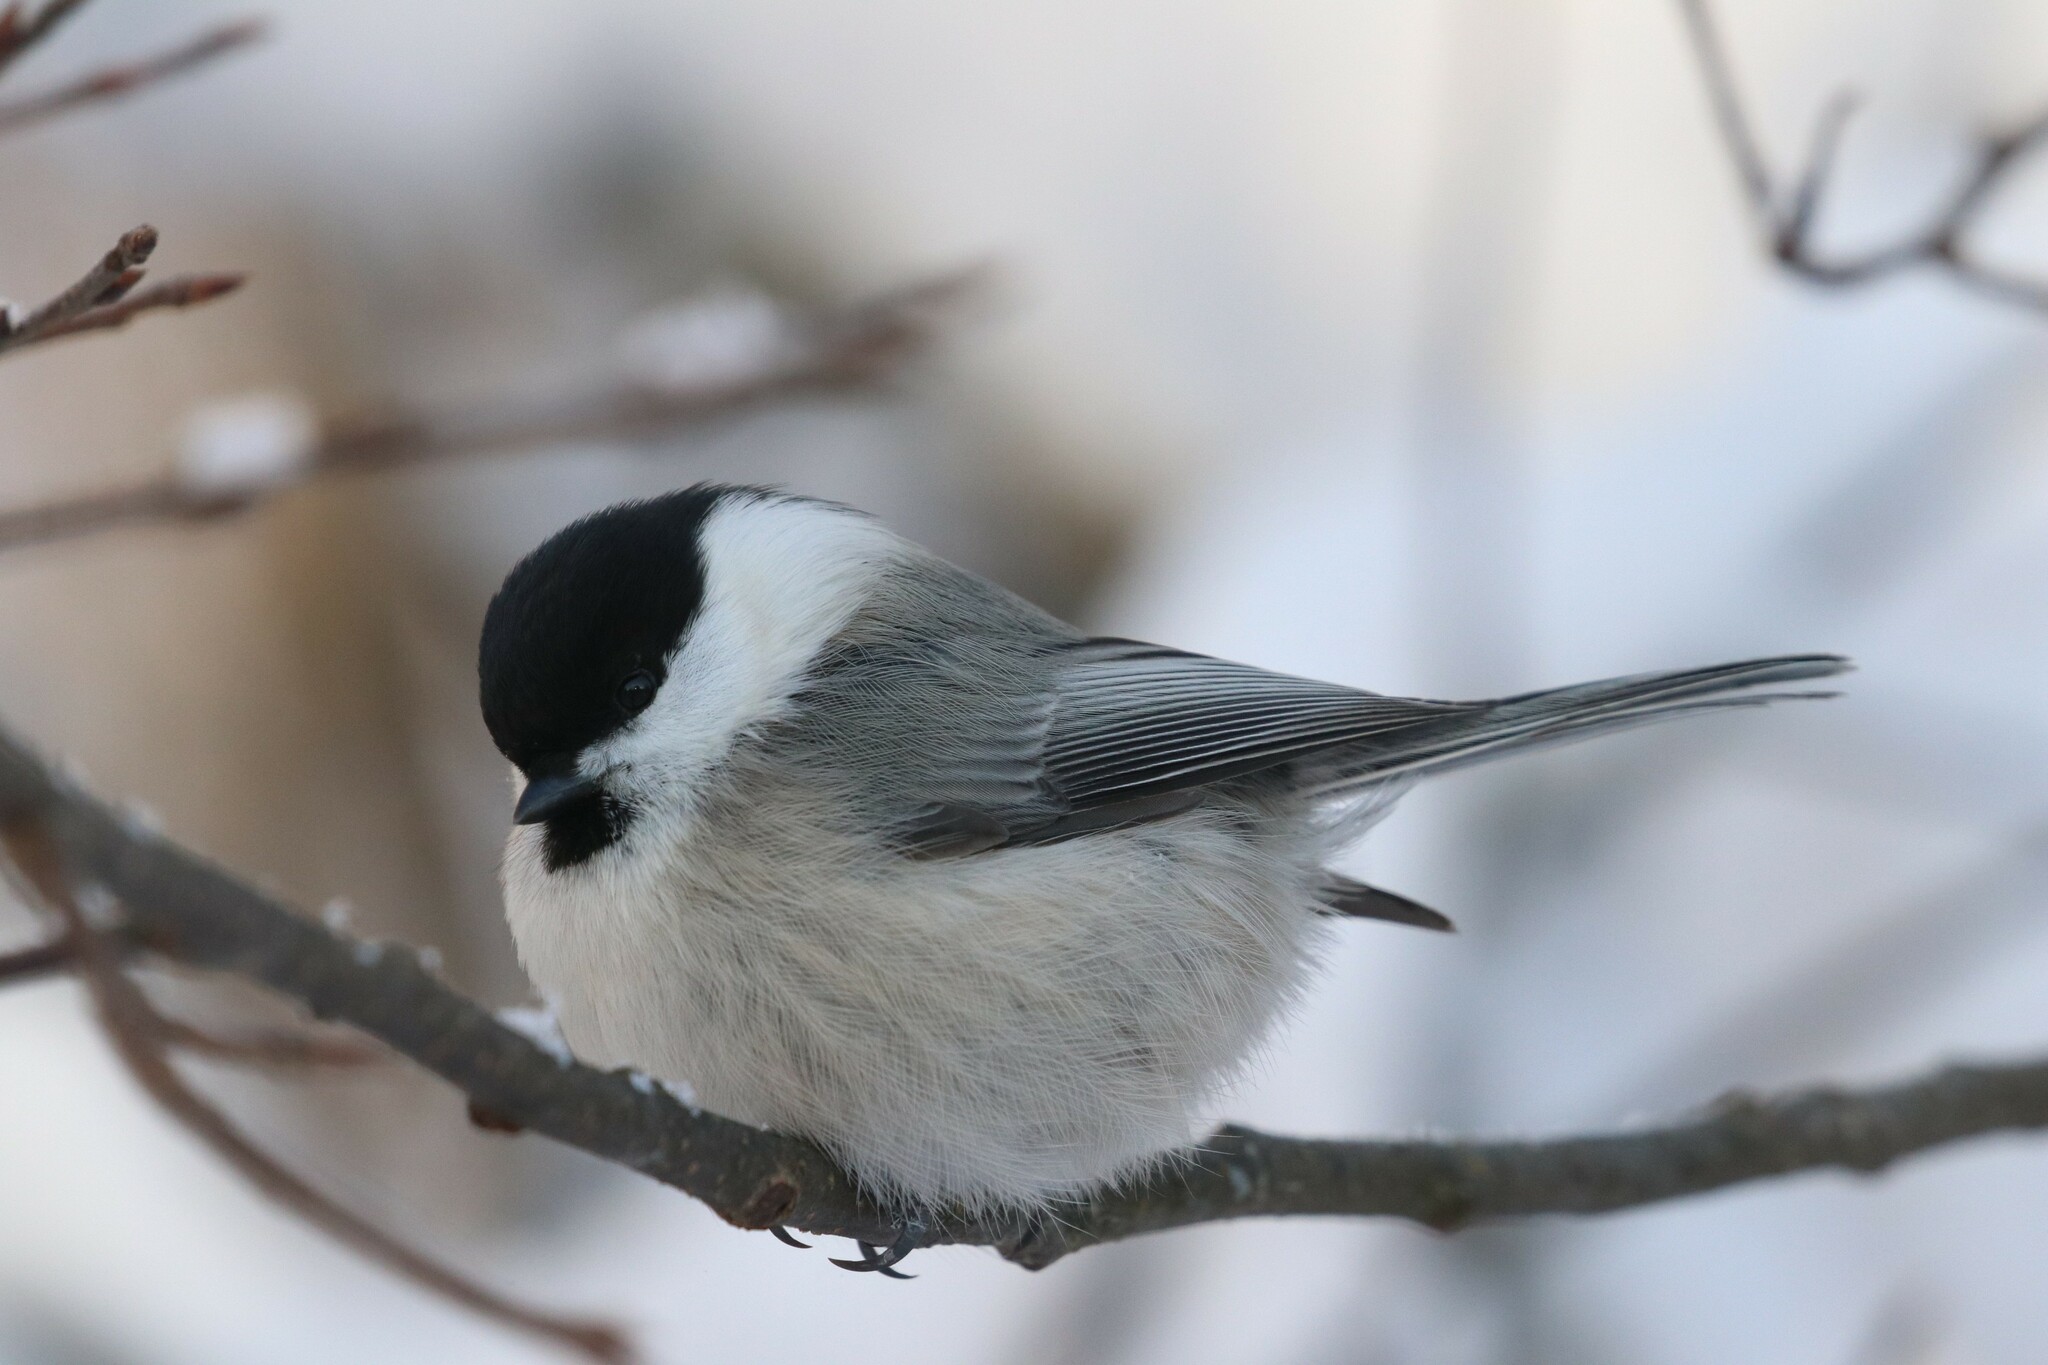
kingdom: Animalia
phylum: Chordata
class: Aves
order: Passeriformes
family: Paridae
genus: Poecile
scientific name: Poecile montanus
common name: Willow tit
